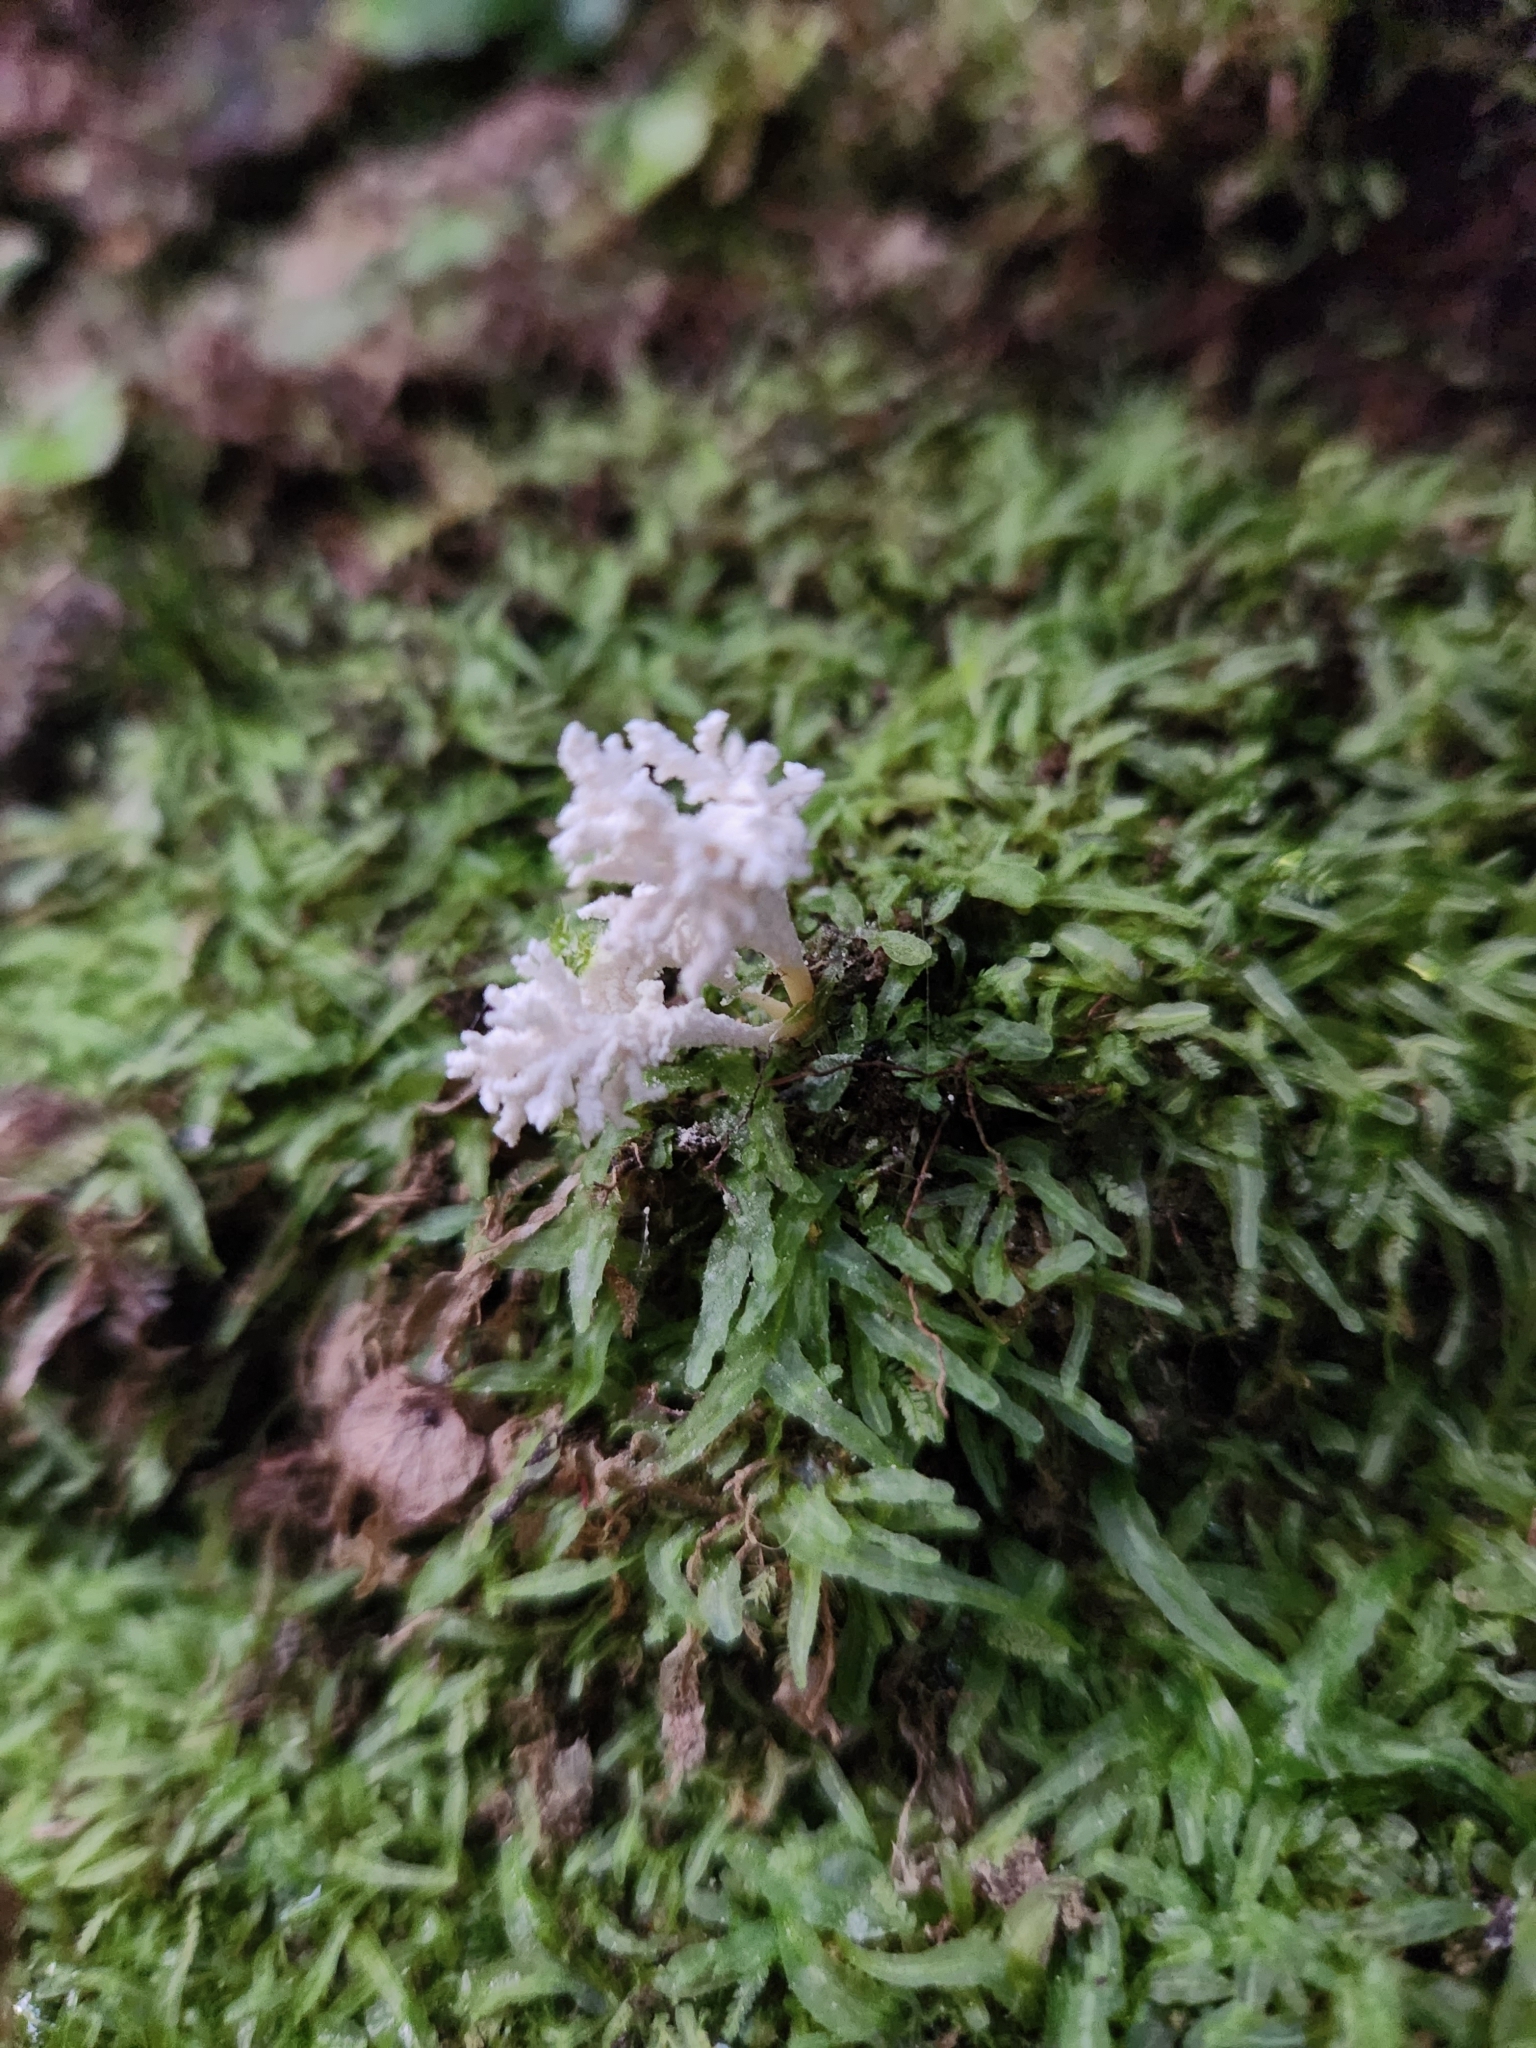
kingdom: Fungi
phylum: Ascomycota
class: Sordariomycetes
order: Hypocreales
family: Cordycipitaceae
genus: Cordyceps
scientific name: Cordyceps tenuipes
